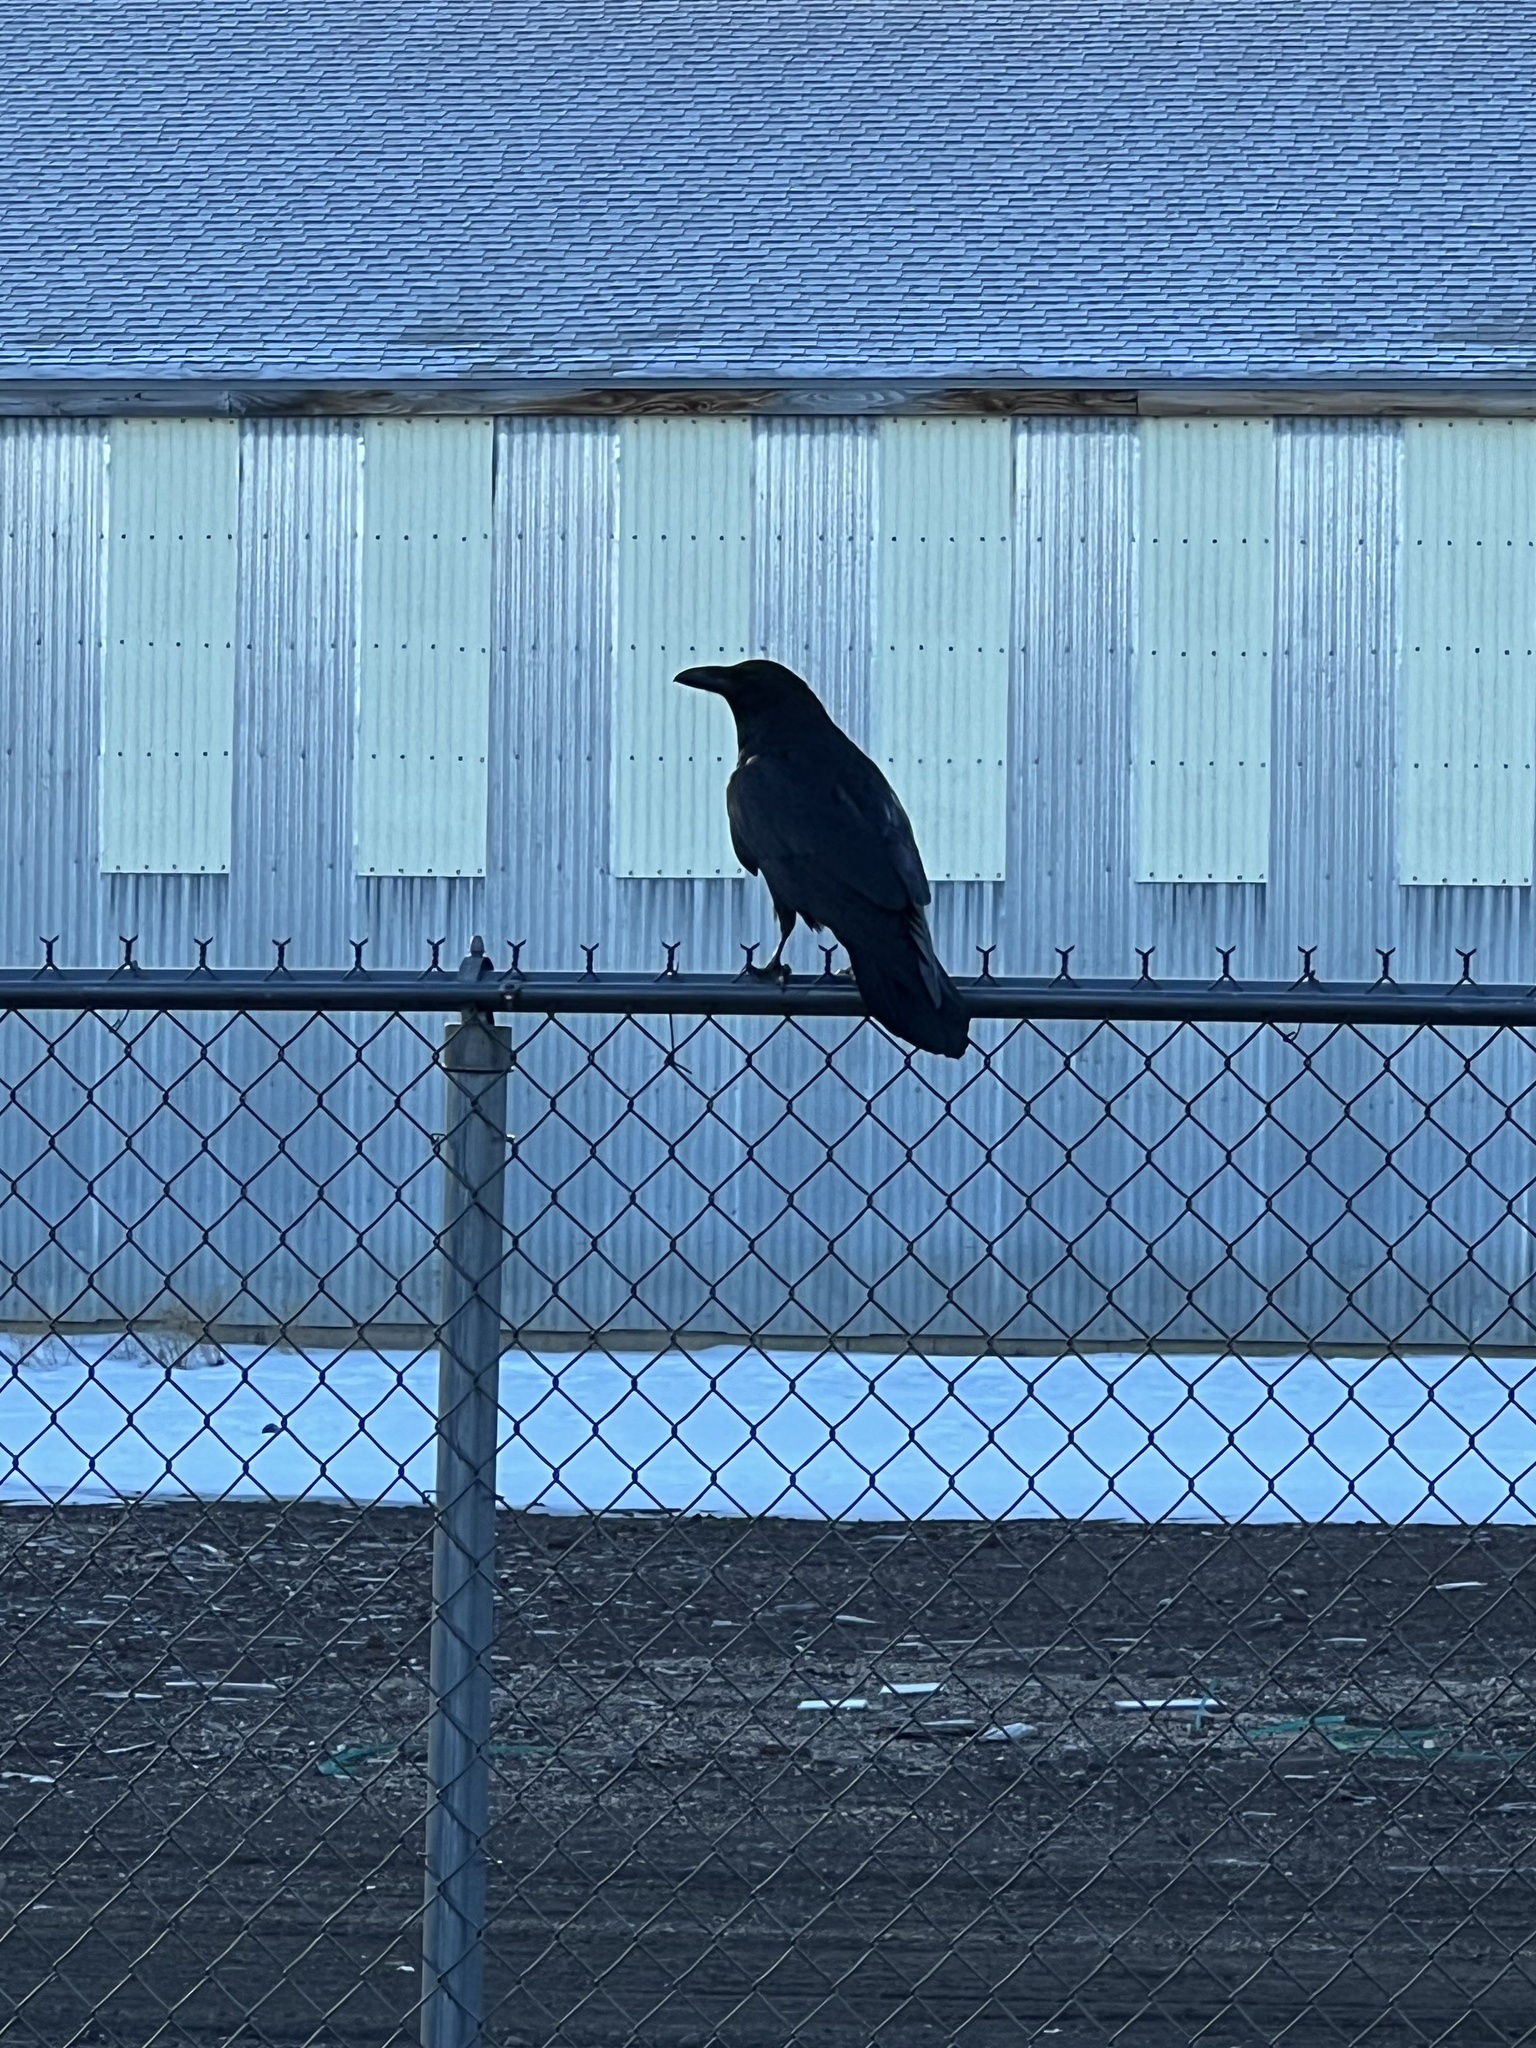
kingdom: Animalia
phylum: Chordata
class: Aves
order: Passeriformes
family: Corvidae
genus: Corvus
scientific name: Corvus corax
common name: Common raven
